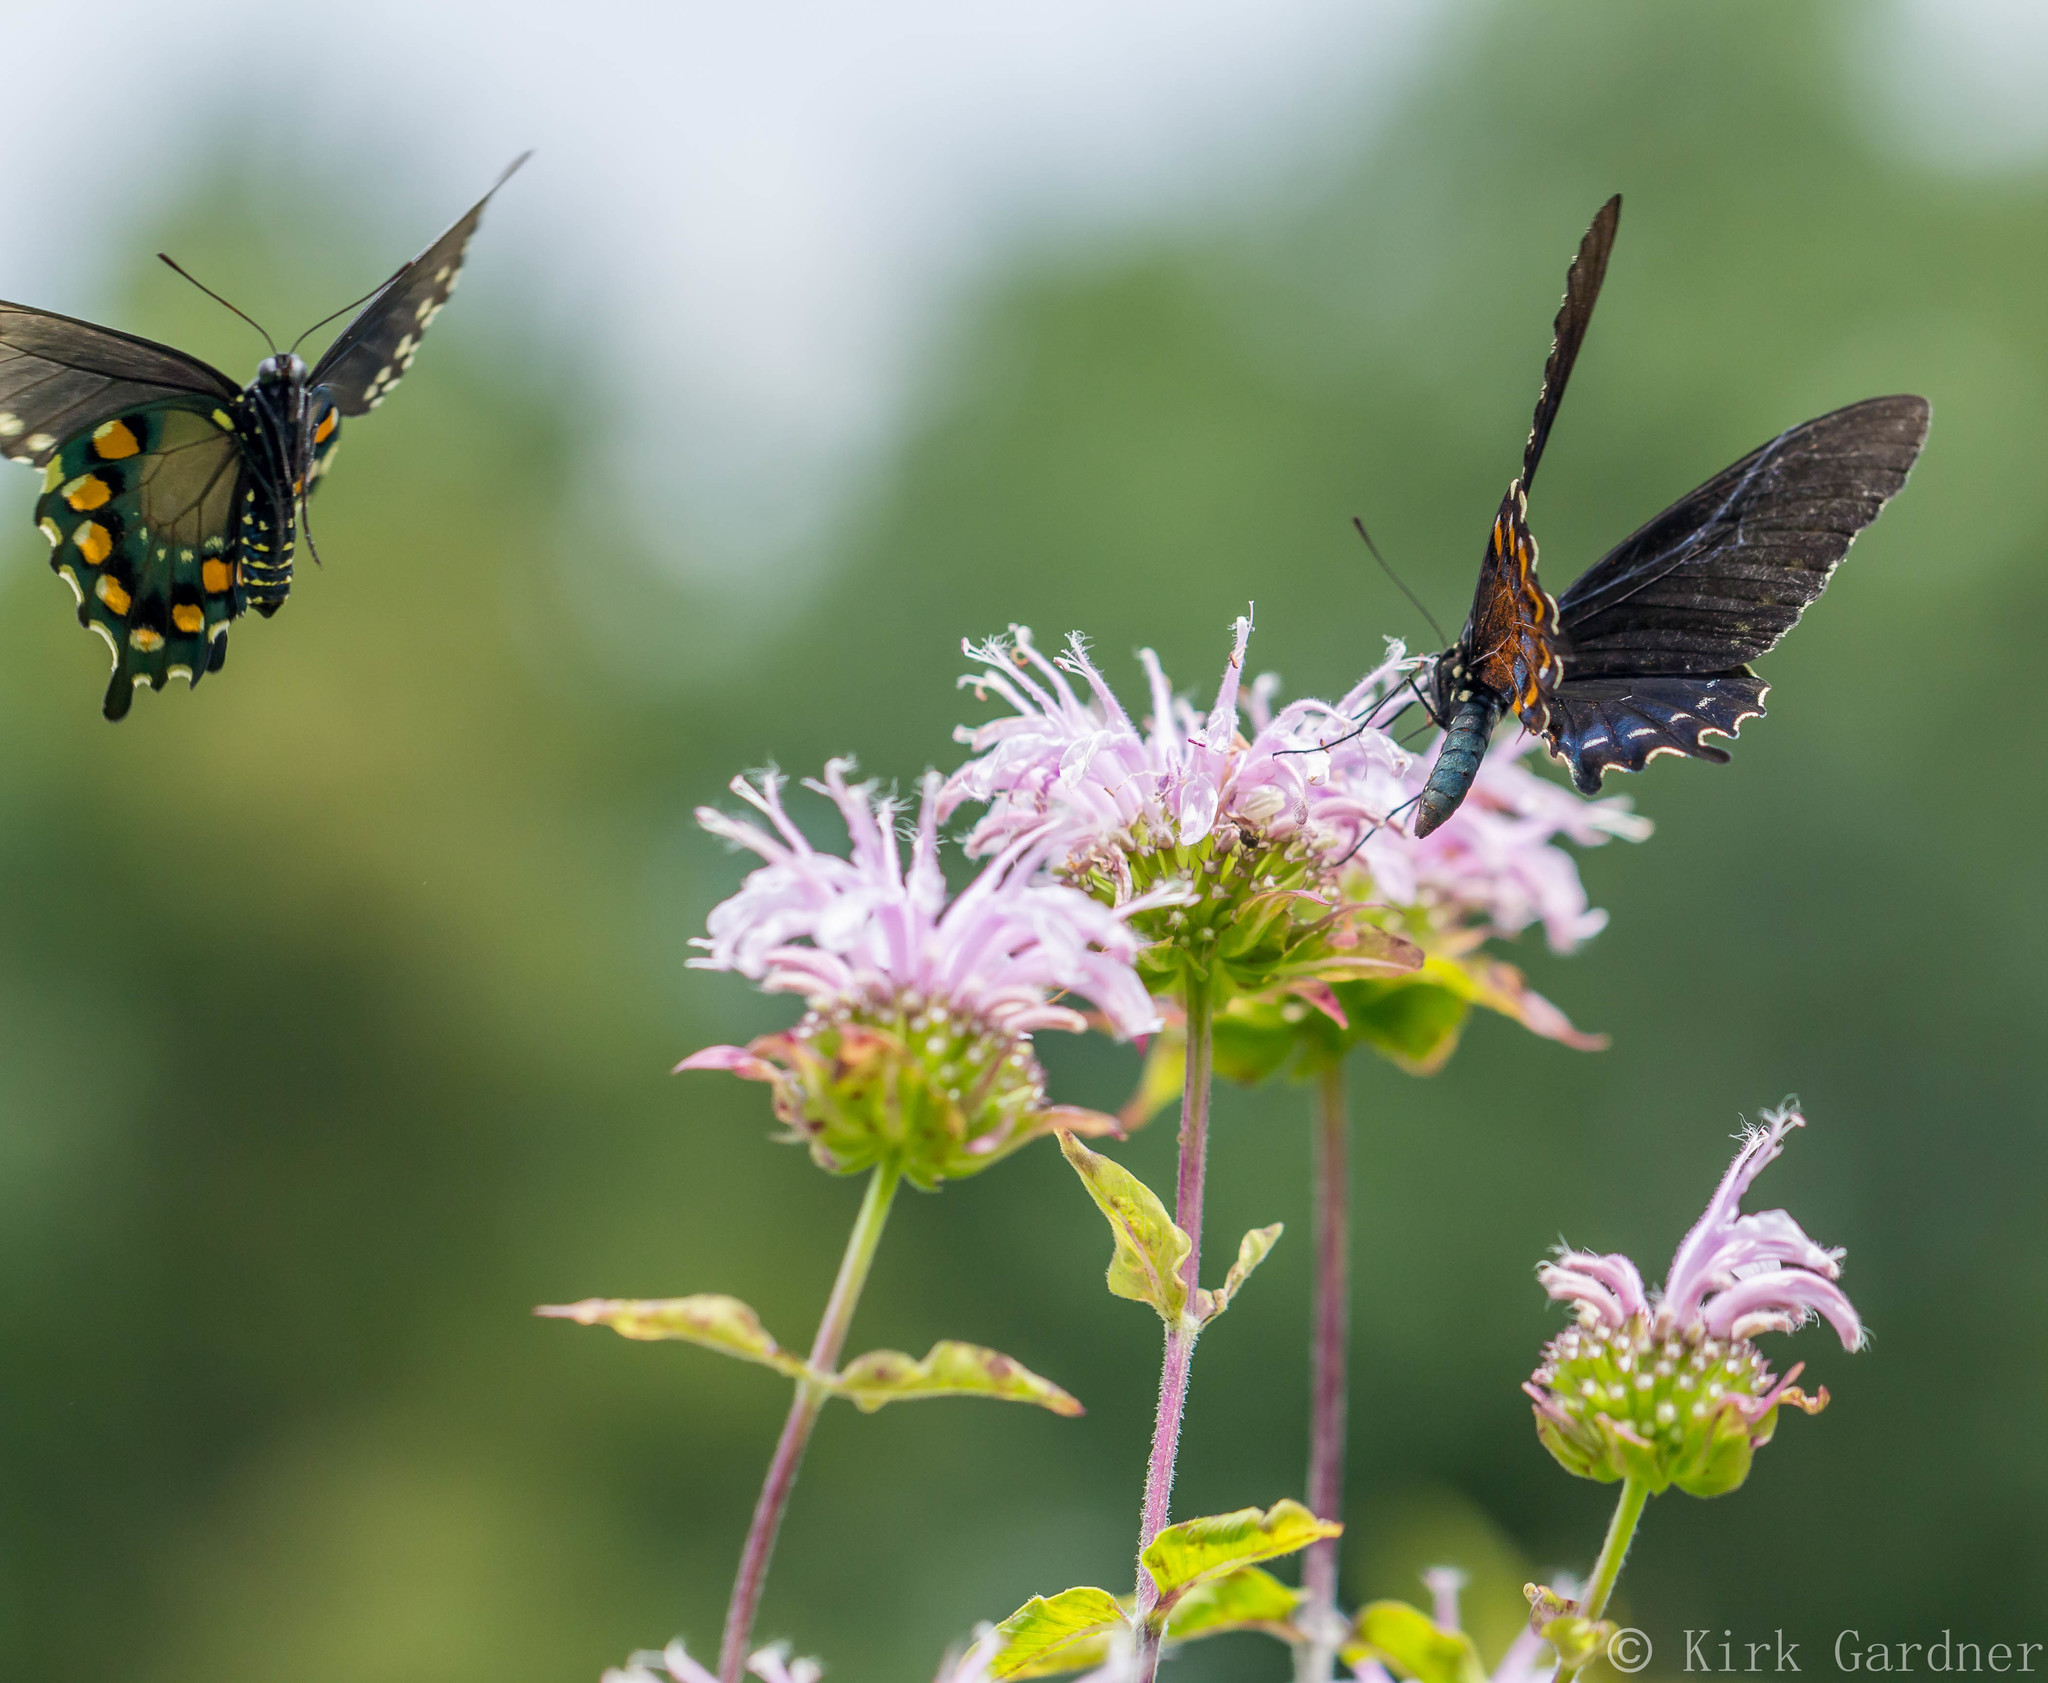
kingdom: Animalia
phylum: Arthropoda
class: Insecta
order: Lepidoptera
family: Papilionidae
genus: Battus
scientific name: Battus philenor
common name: Pipevine swallowtail
